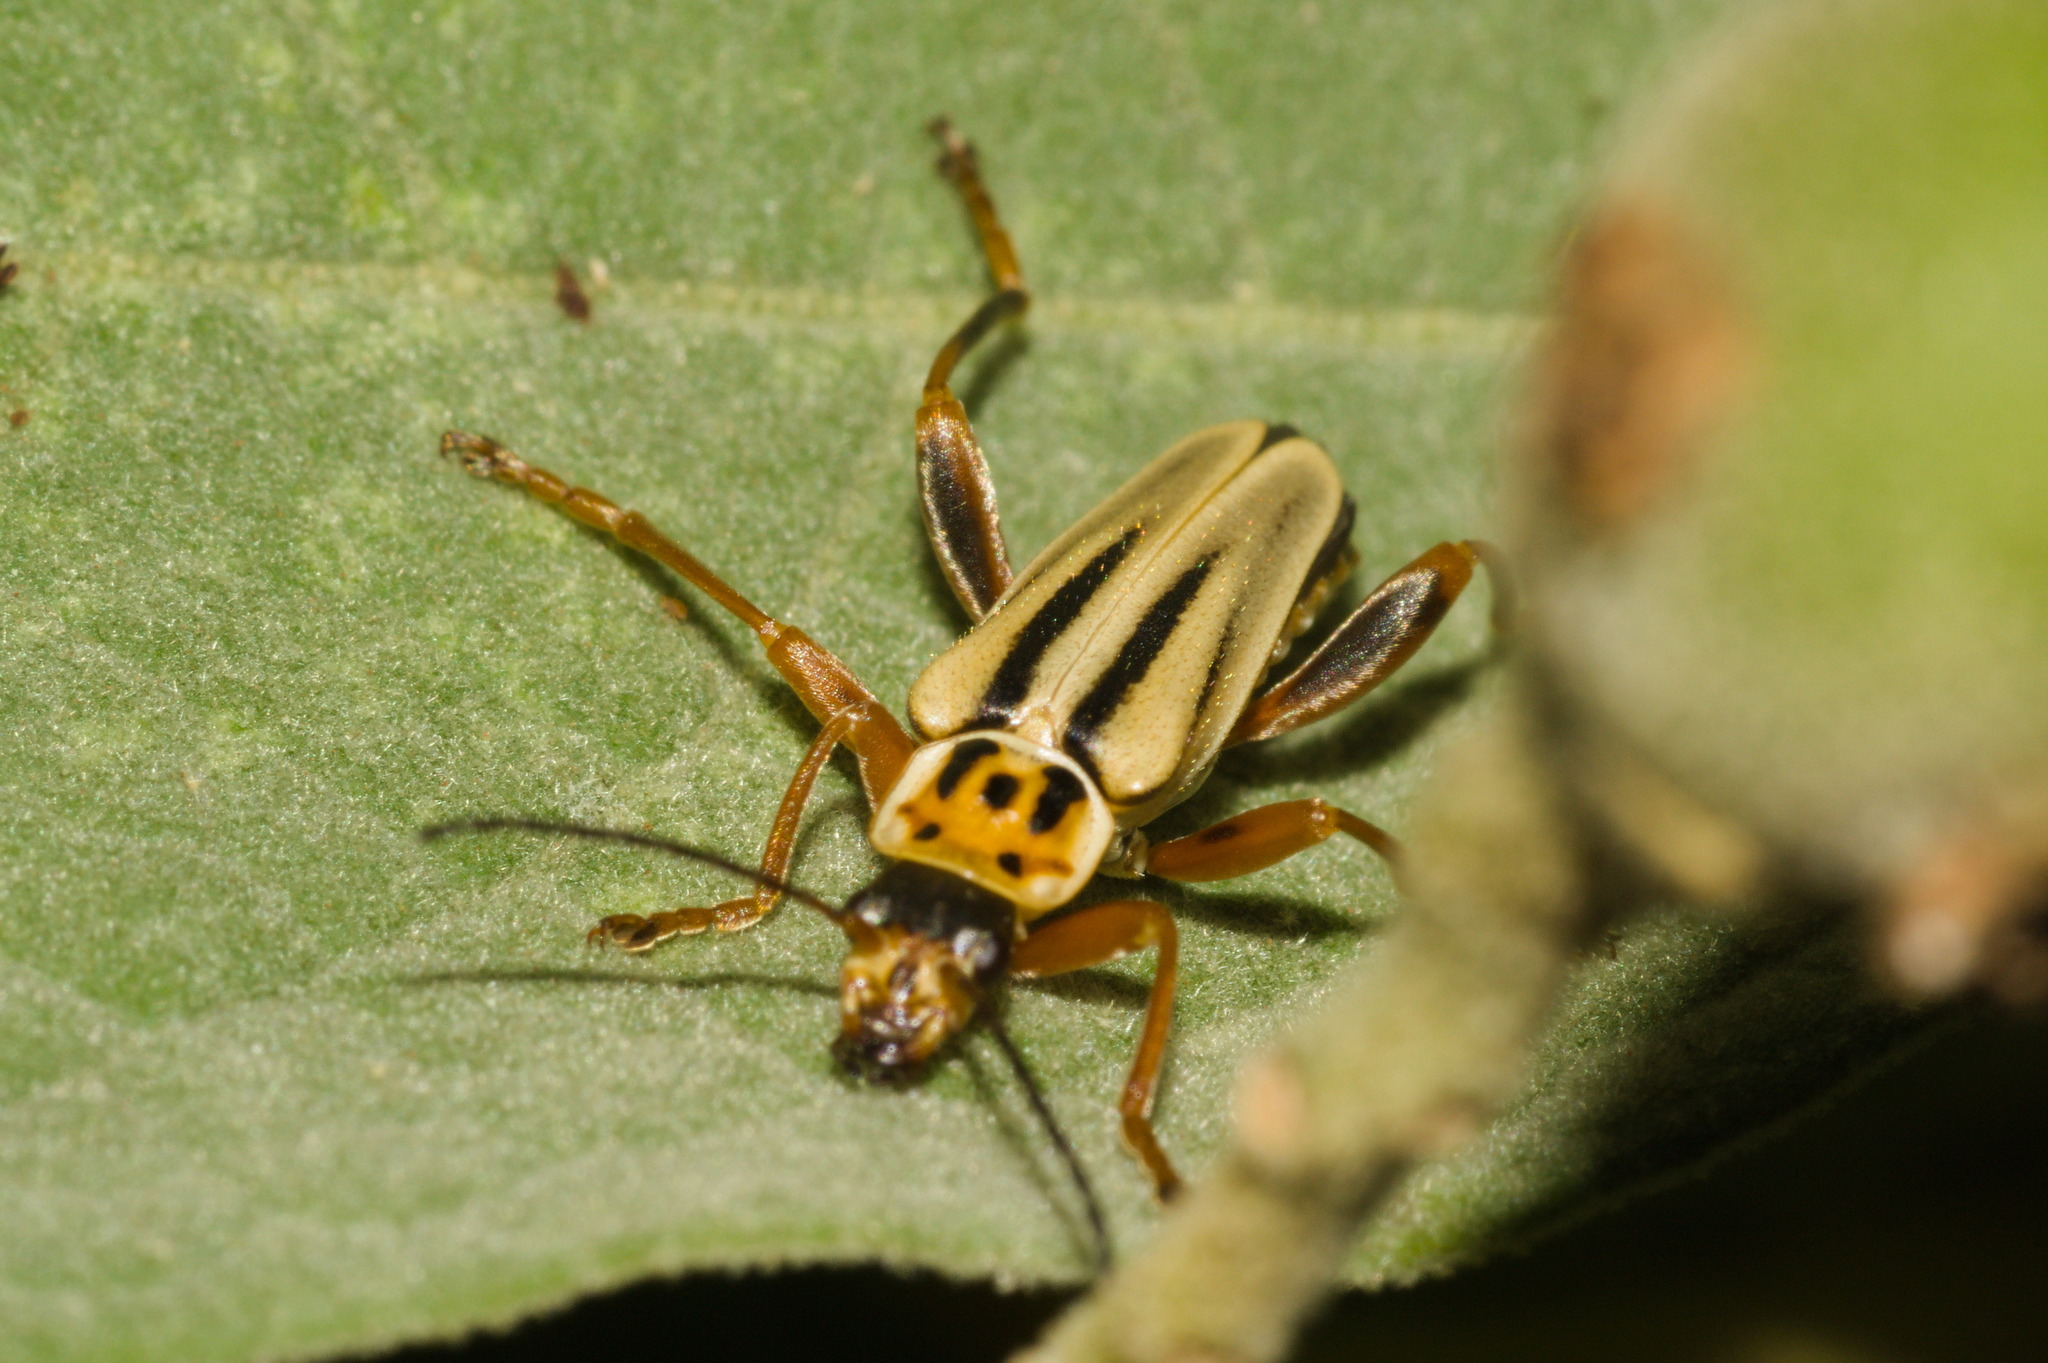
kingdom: Animalia
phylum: Arthropoda
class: Insecta
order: Coleoptera
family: Cantharidae
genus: Chauliognathus
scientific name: Chauliognathus
